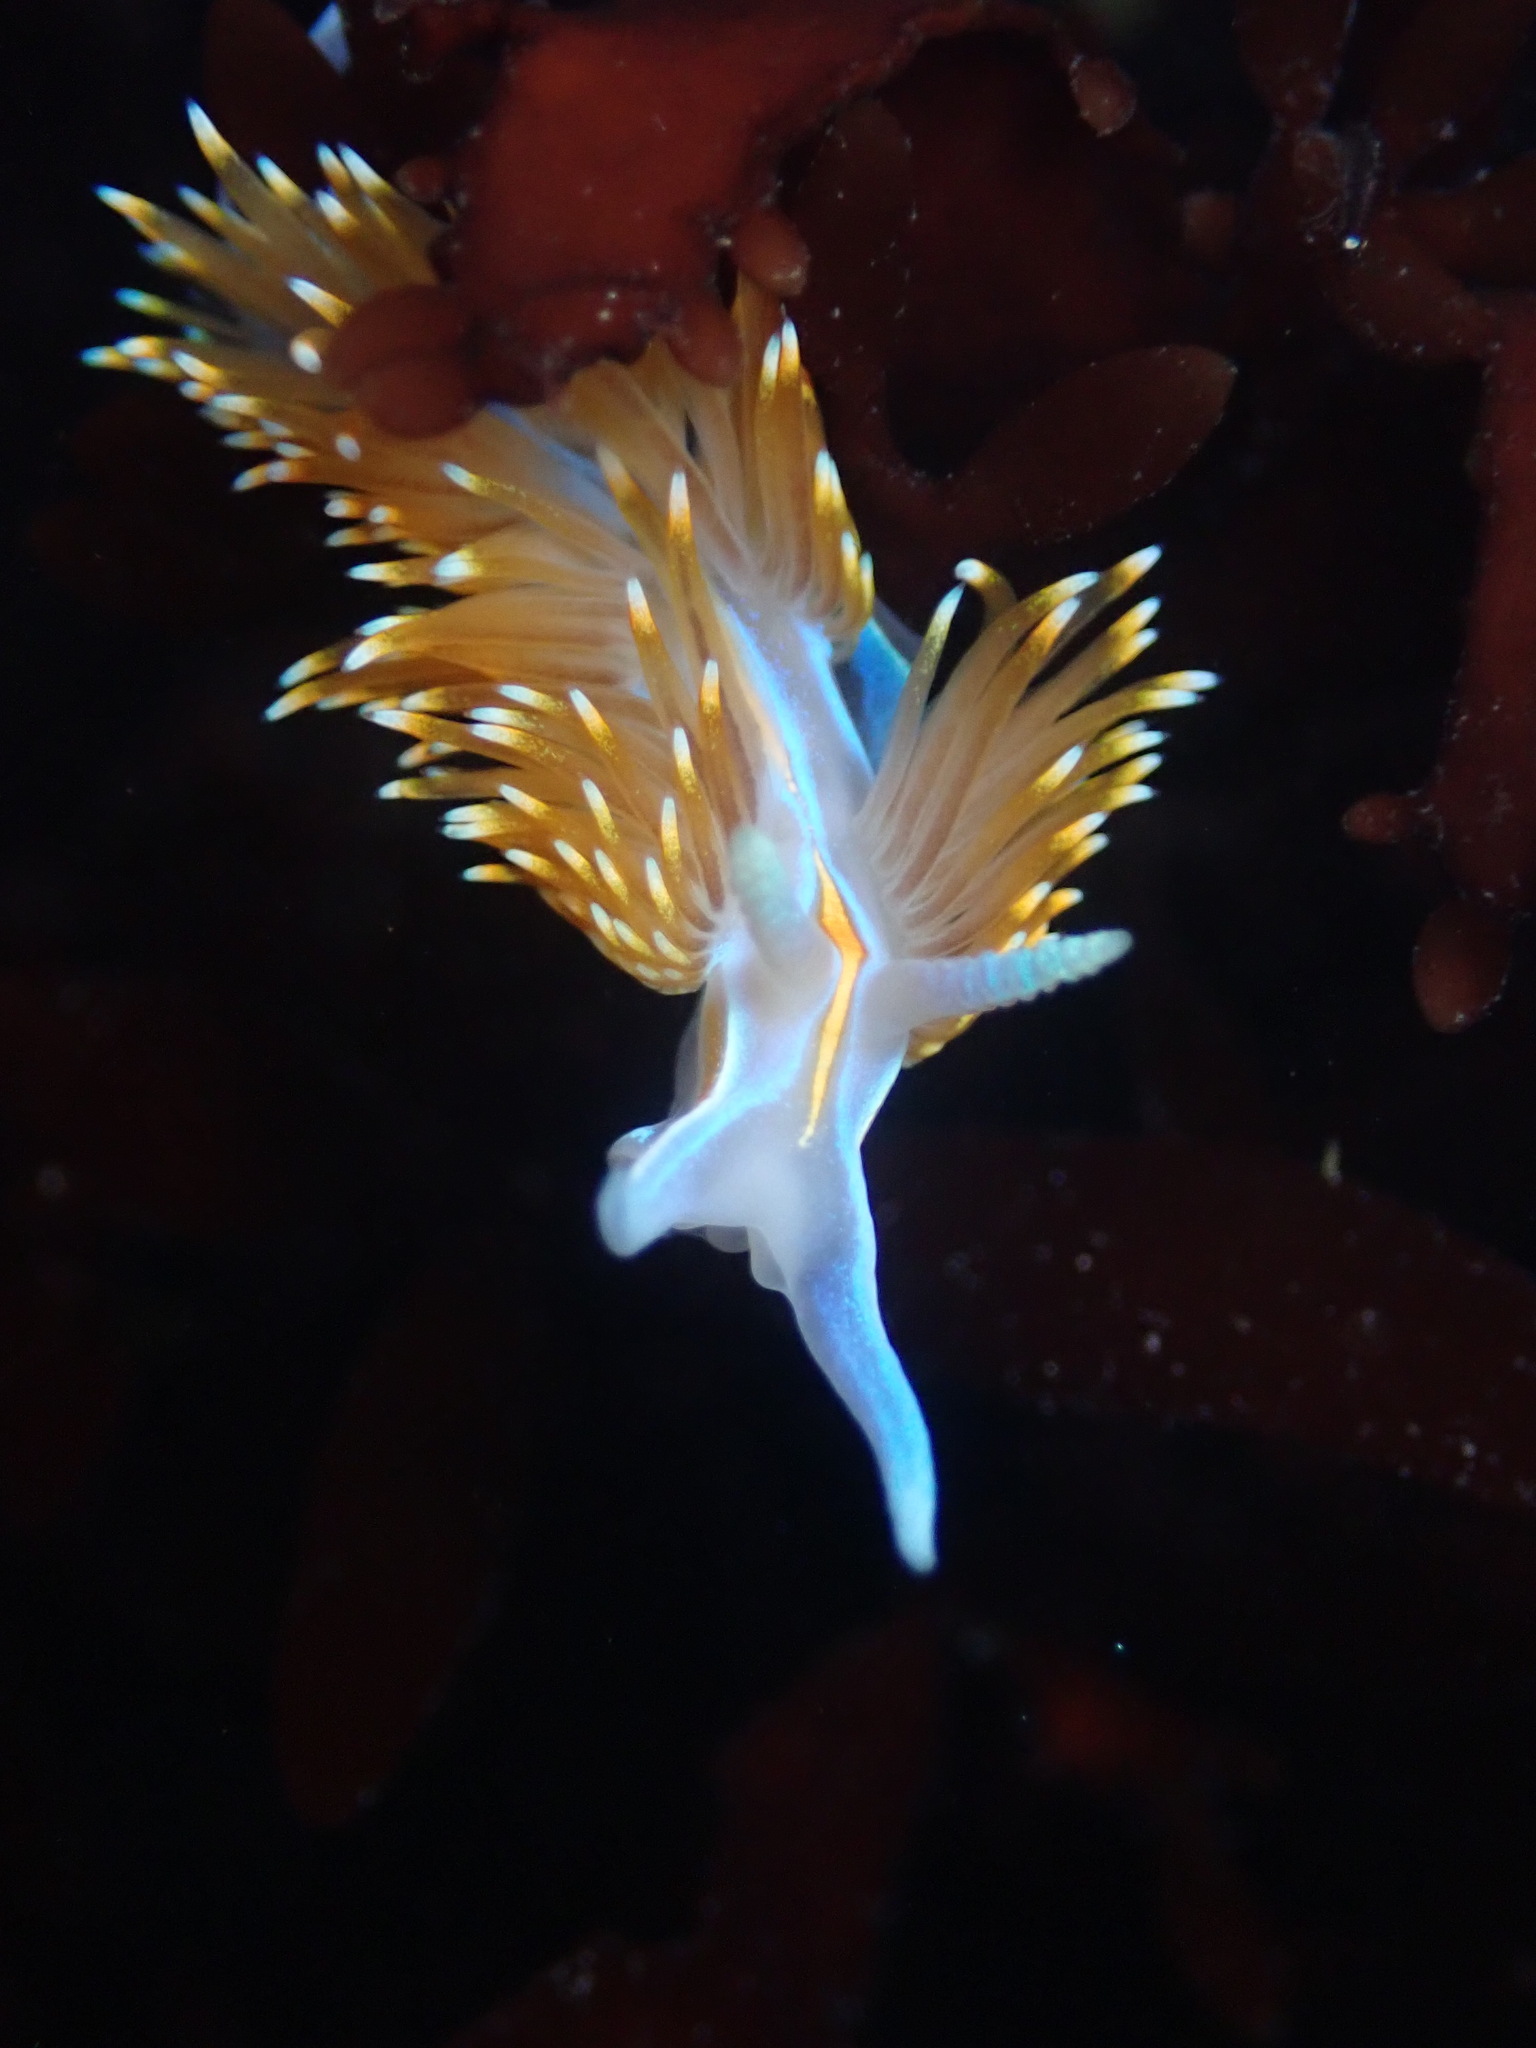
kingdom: Animalia
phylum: Mollusca
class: Gastropoda
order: Nudibranchia
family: Myrrhinidae
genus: Hermissenda
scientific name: Hermissenda opalescens
